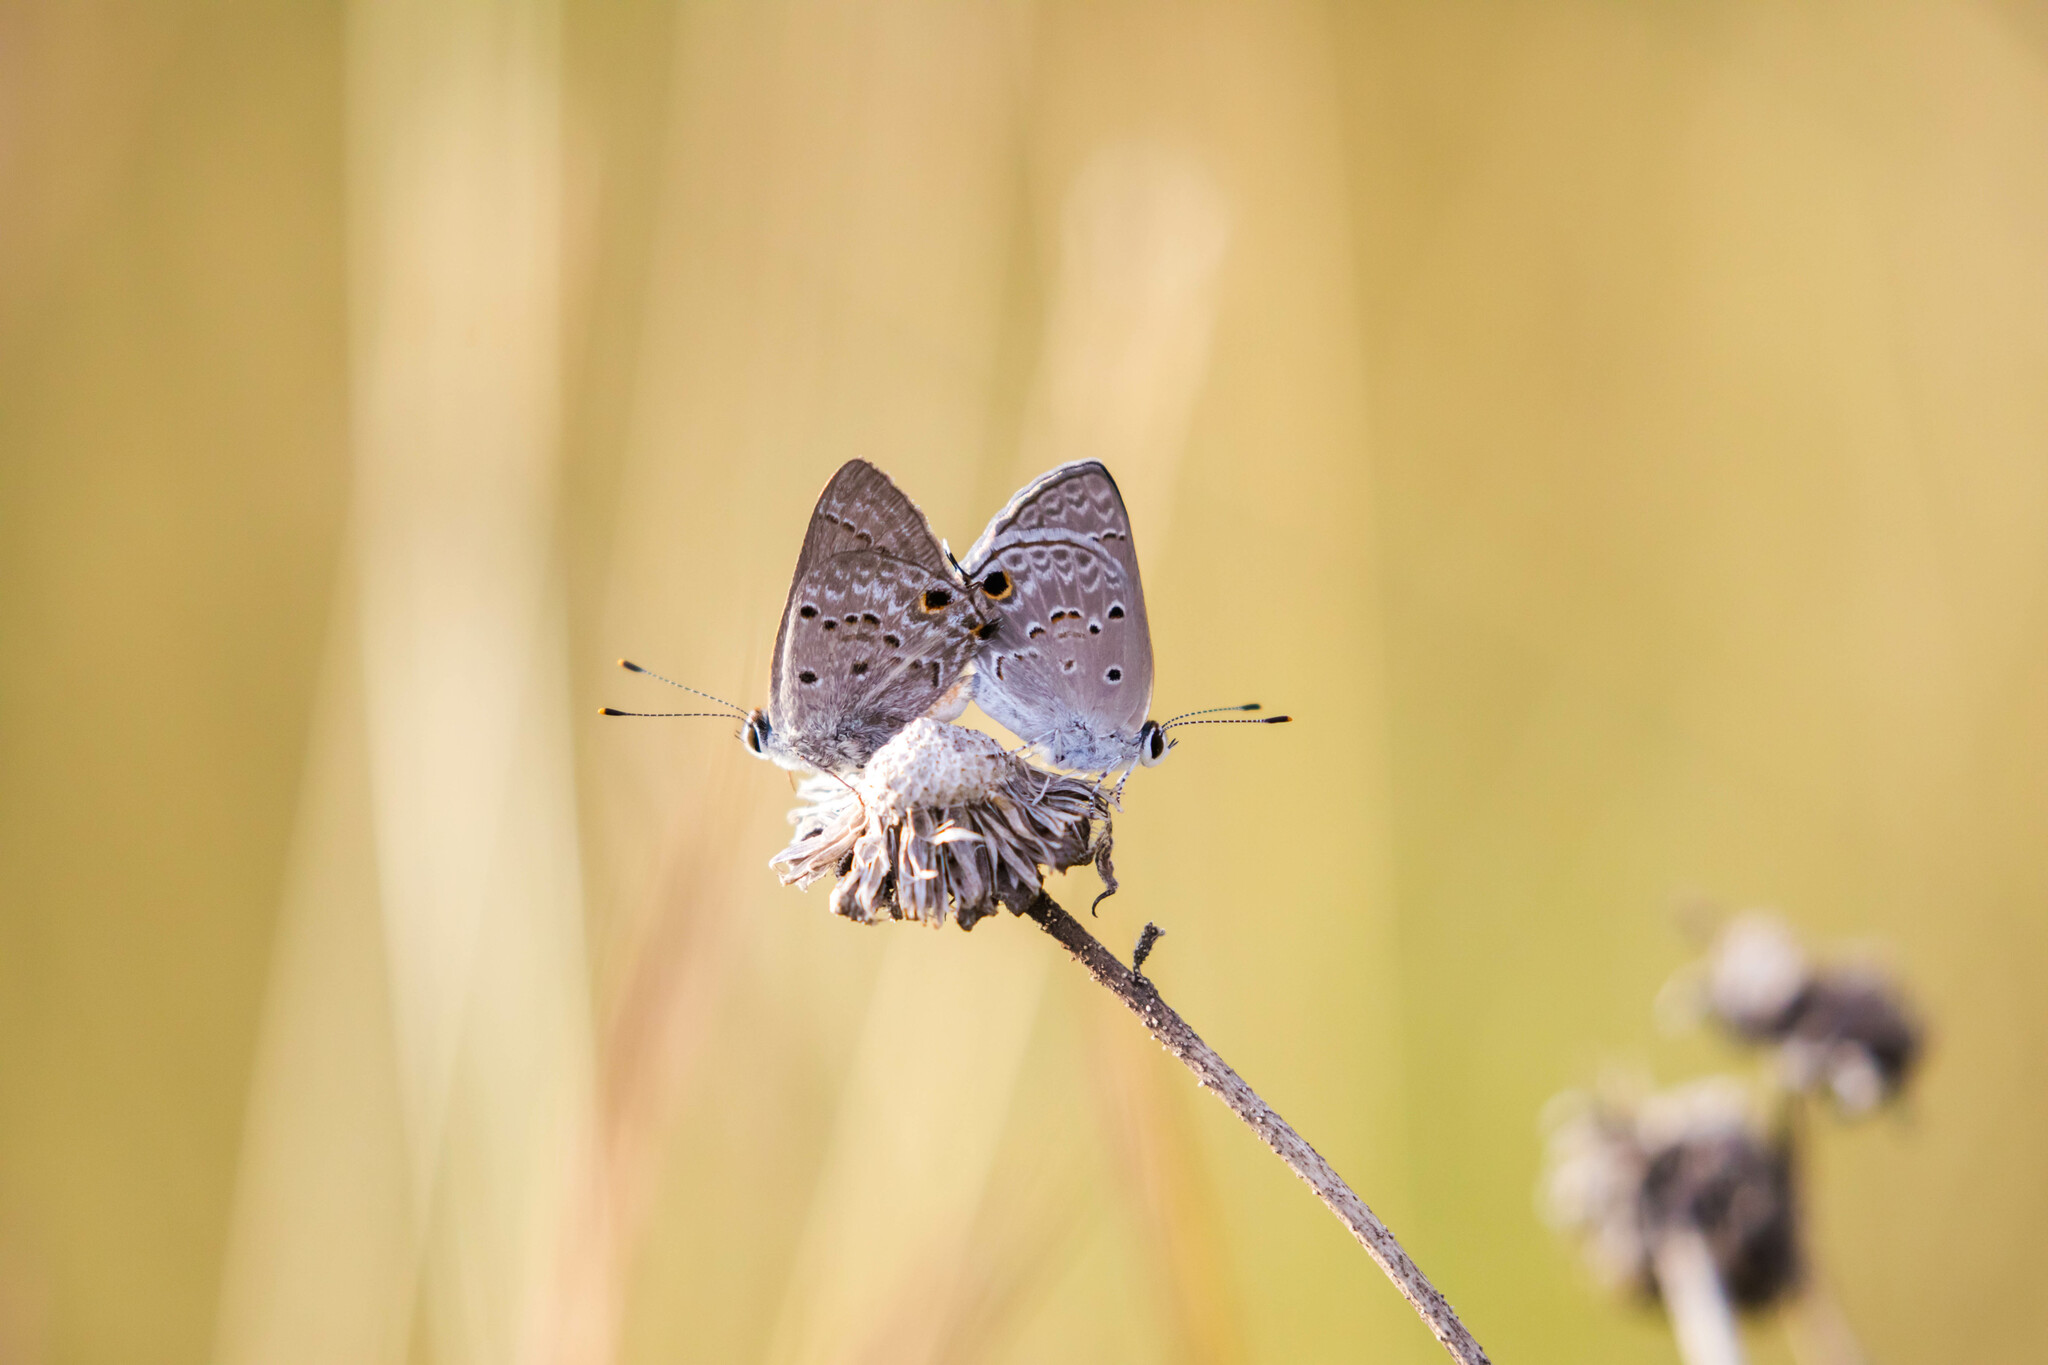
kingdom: Animalia
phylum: Arthropoda
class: Insecta
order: Lepidoptera
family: Lycaenidae
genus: Callicista
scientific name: Callicista columella
